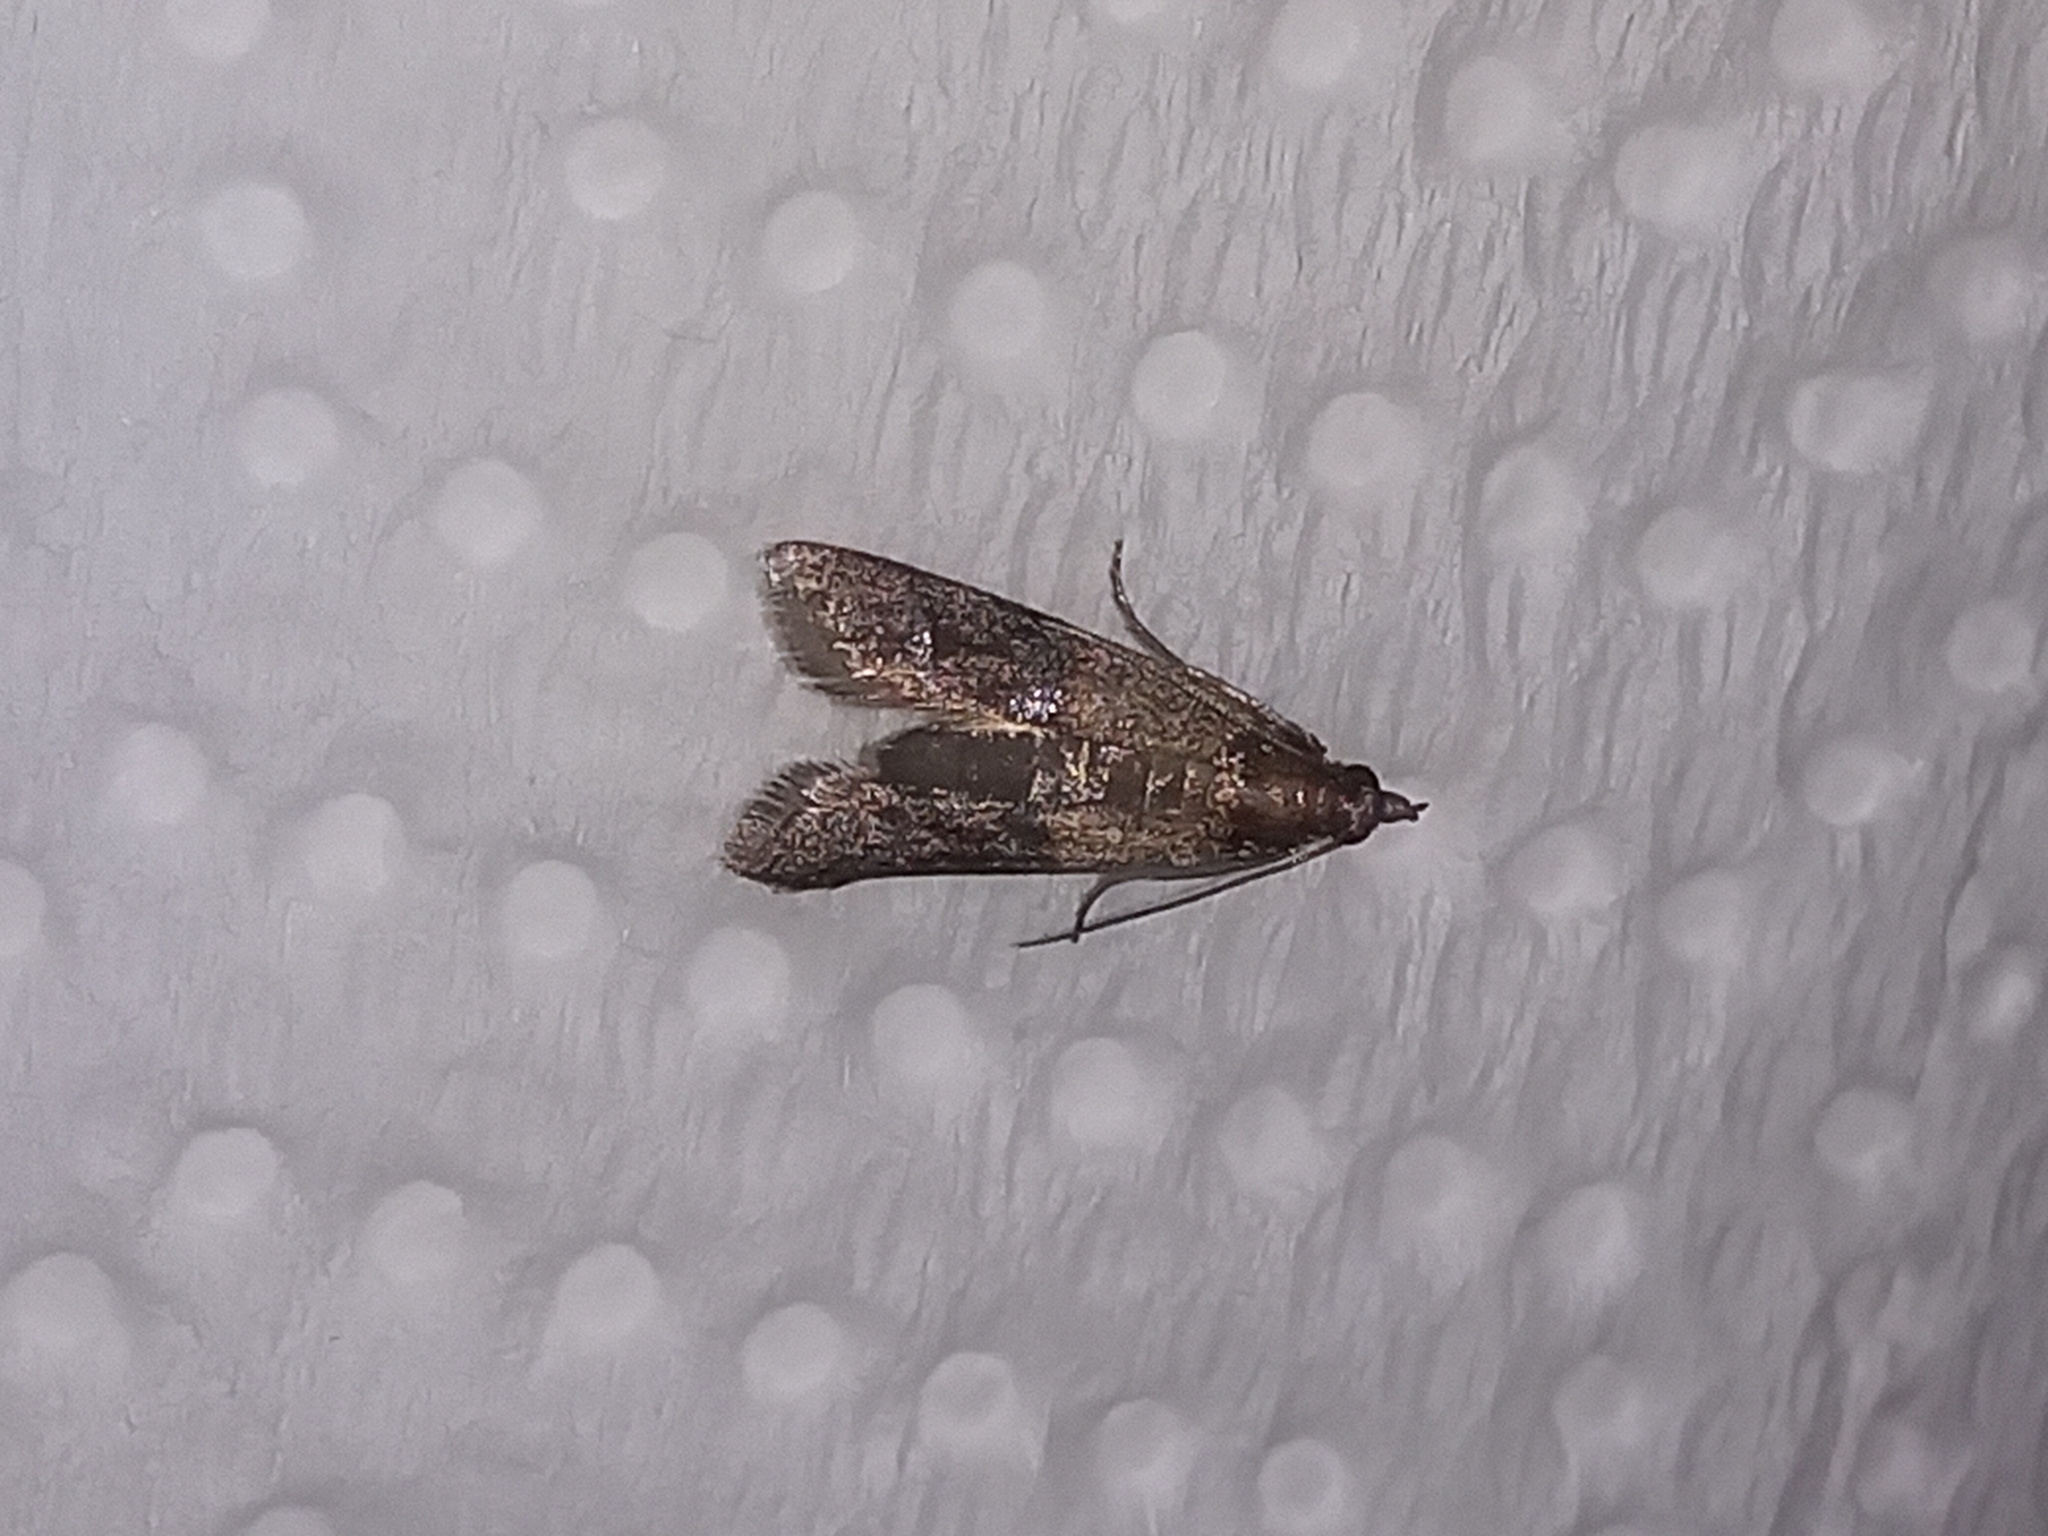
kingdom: Animalia
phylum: Arthropoda
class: Insecta
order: Lepidoptera
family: Pyralidae
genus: Plodia
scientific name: Plodia interpunctella
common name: Indian meal moth
